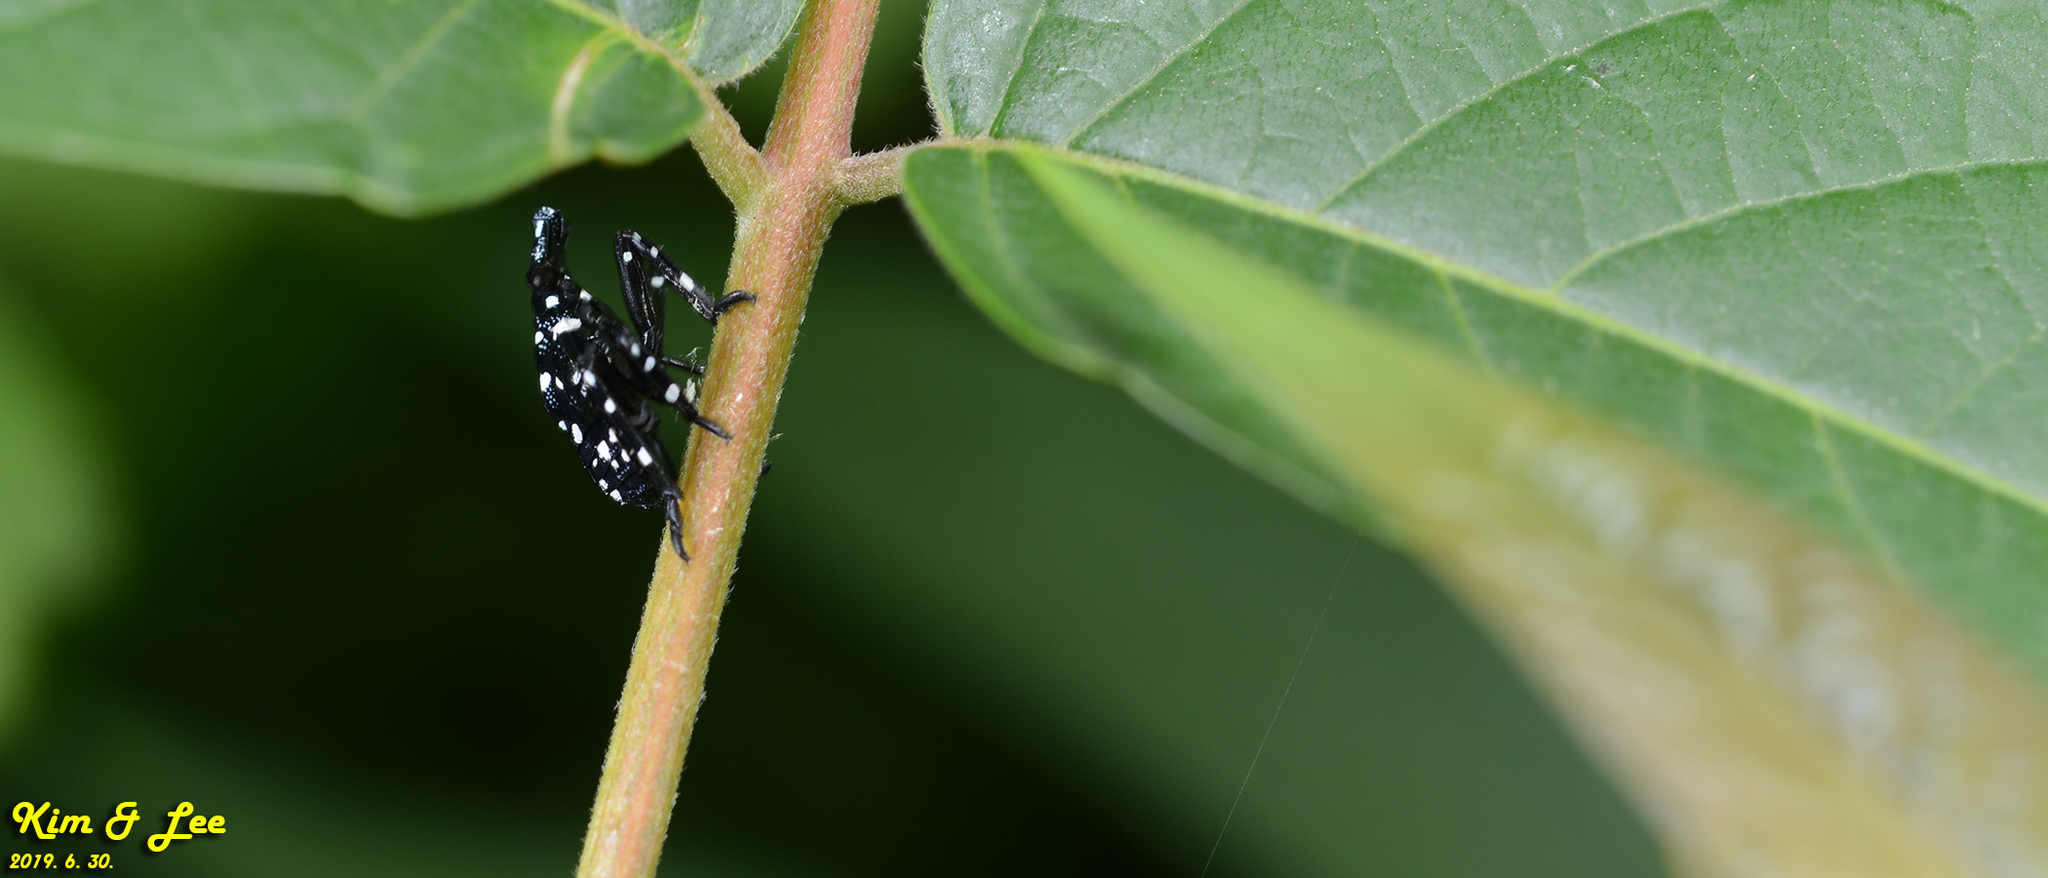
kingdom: Animalia
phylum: Arthropoda
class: Insecta
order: Hemiptera
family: Fulgoridae
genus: Lycorma
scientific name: Lycorma delicatula
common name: Spotted lanternfly
